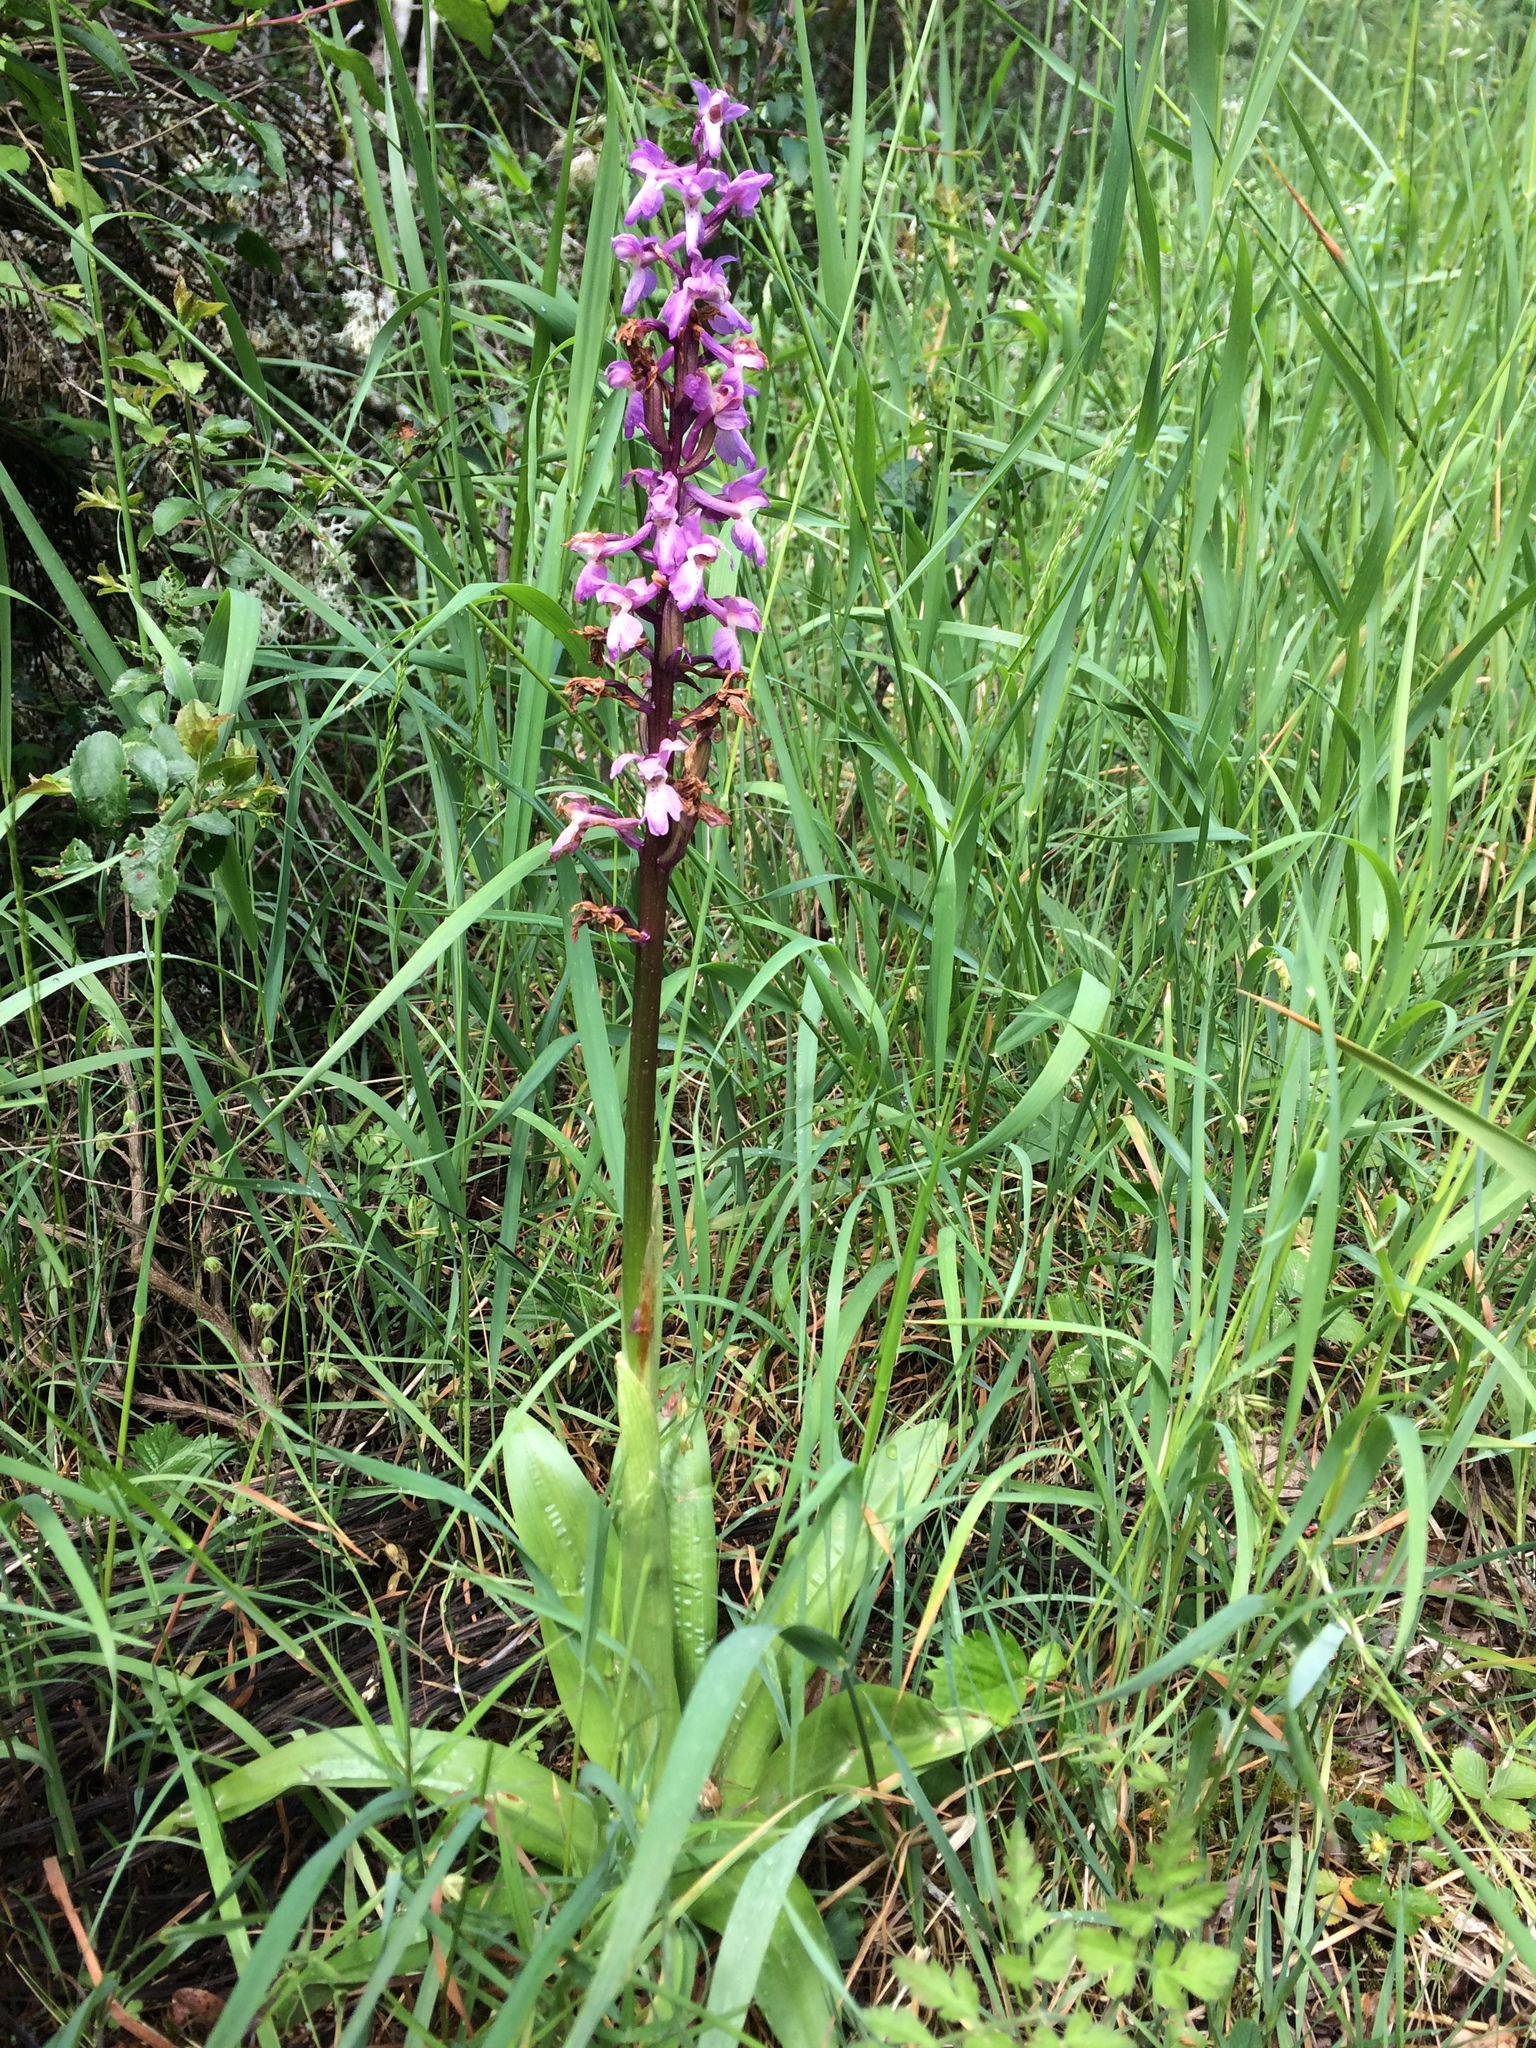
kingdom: Plantae
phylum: Tracheophyta
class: Liliopsida
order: Asparagales
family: Orchidaceae
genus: Orchis
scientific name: Orchis mascula
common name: Early-purple orchid
